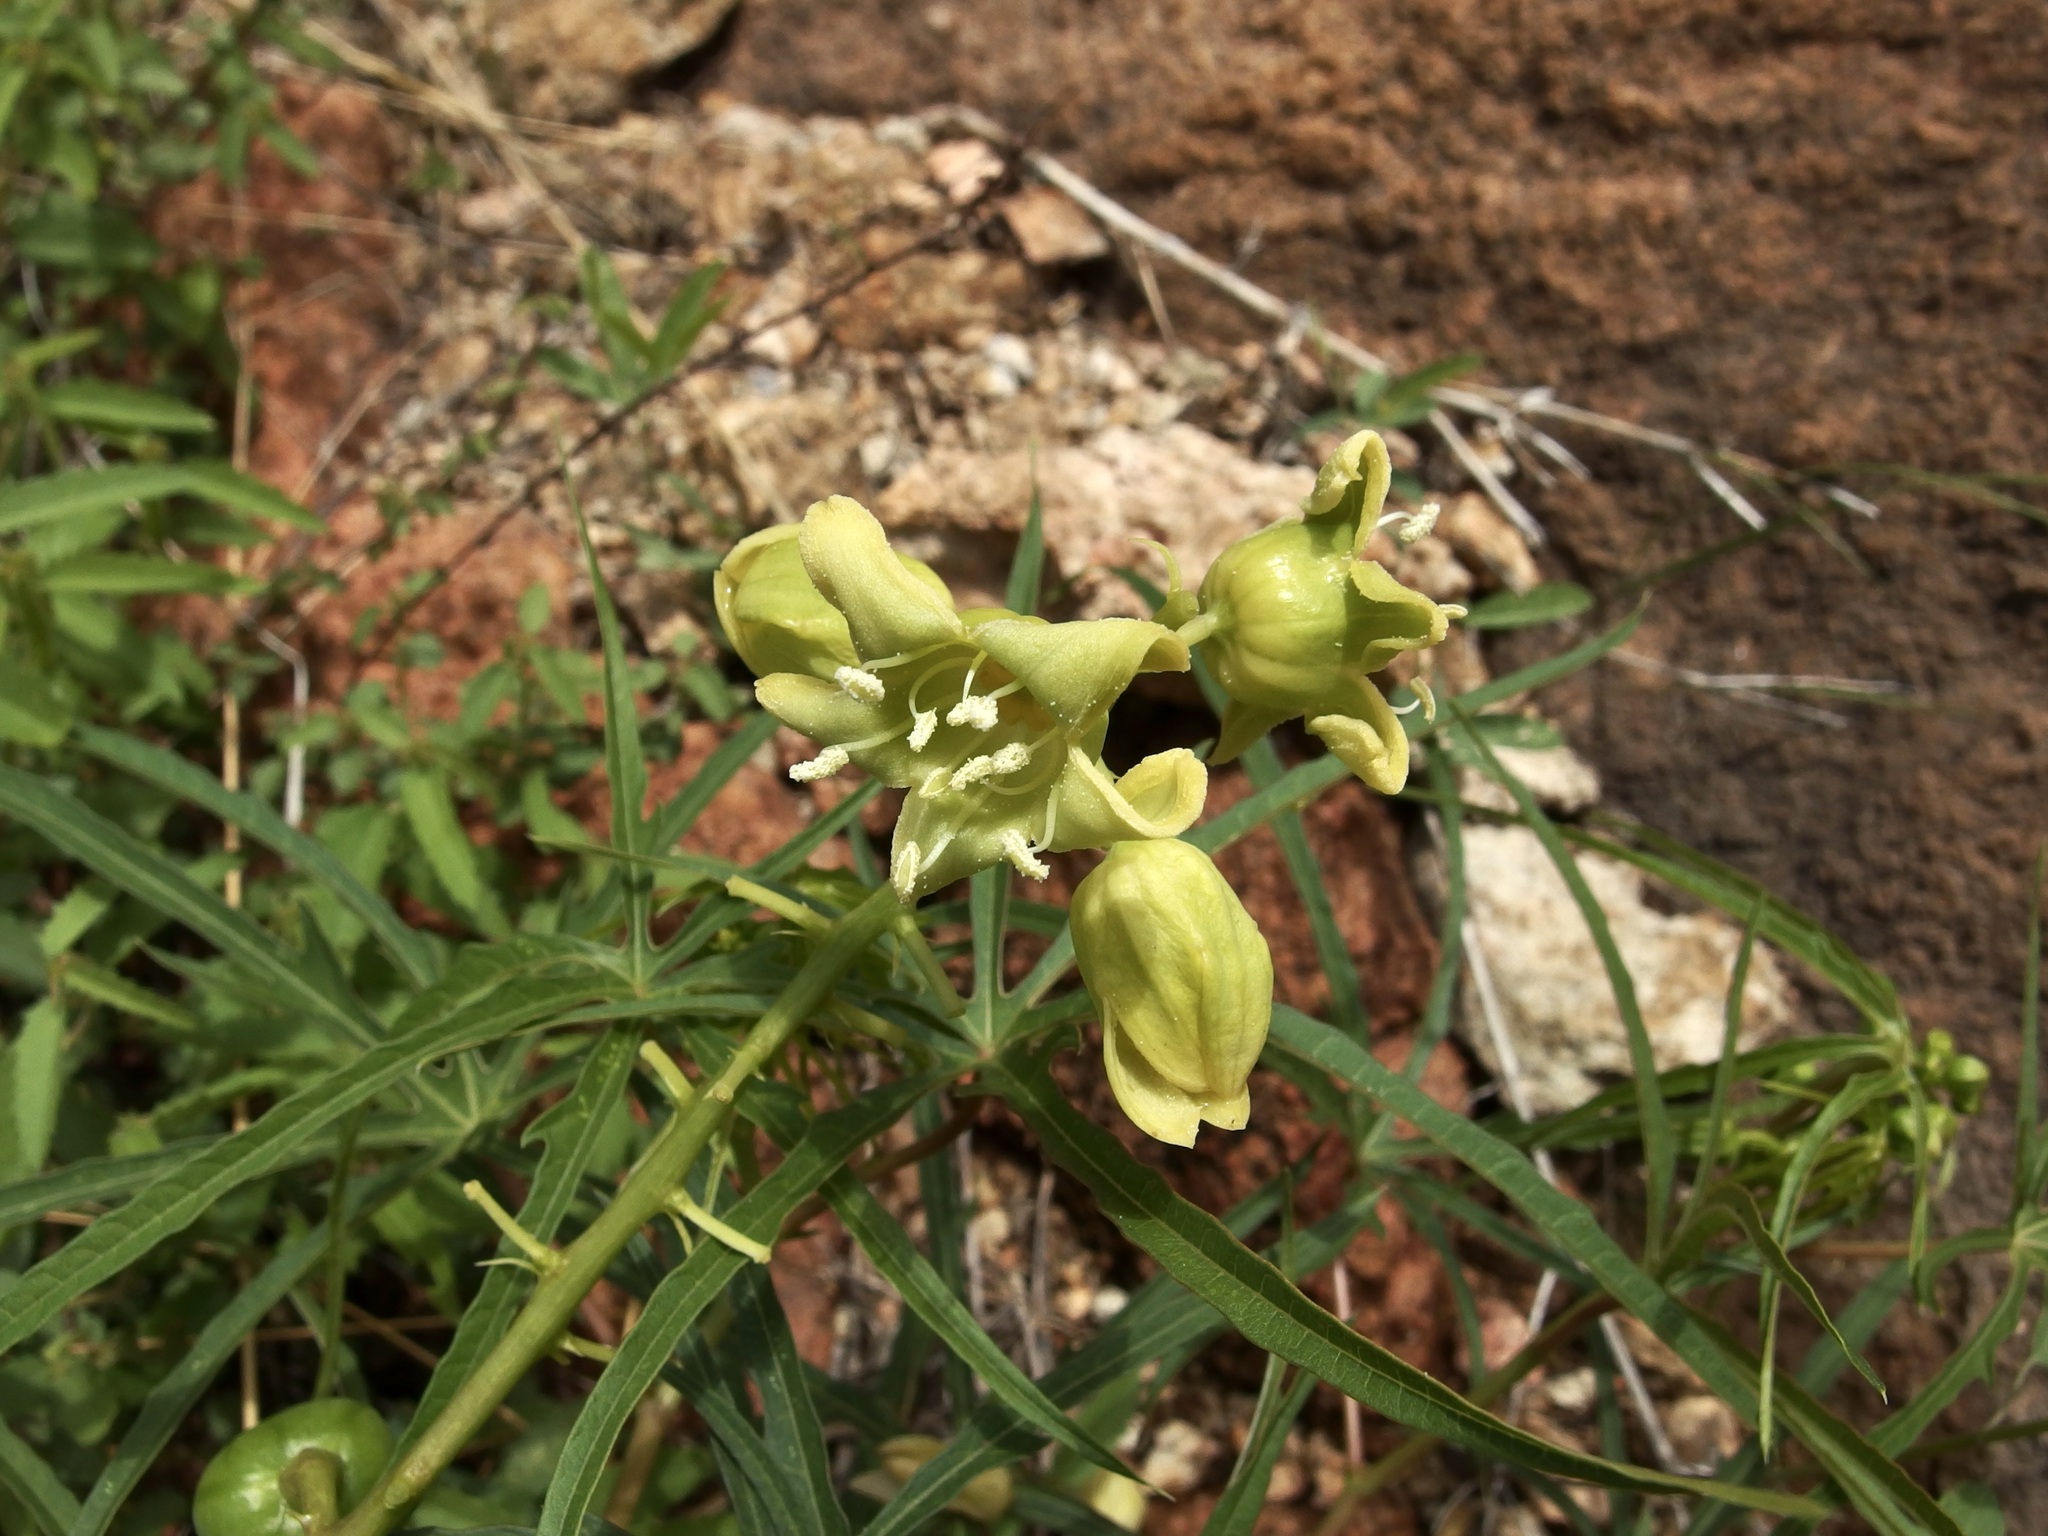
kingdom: Plantae
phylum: Tracheophyta
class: Magnoliopsida
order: Malpighiales
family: Euphorbiaceae
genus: Manihot
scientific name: Manihot angustiloba
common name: Desert mountain manihot
